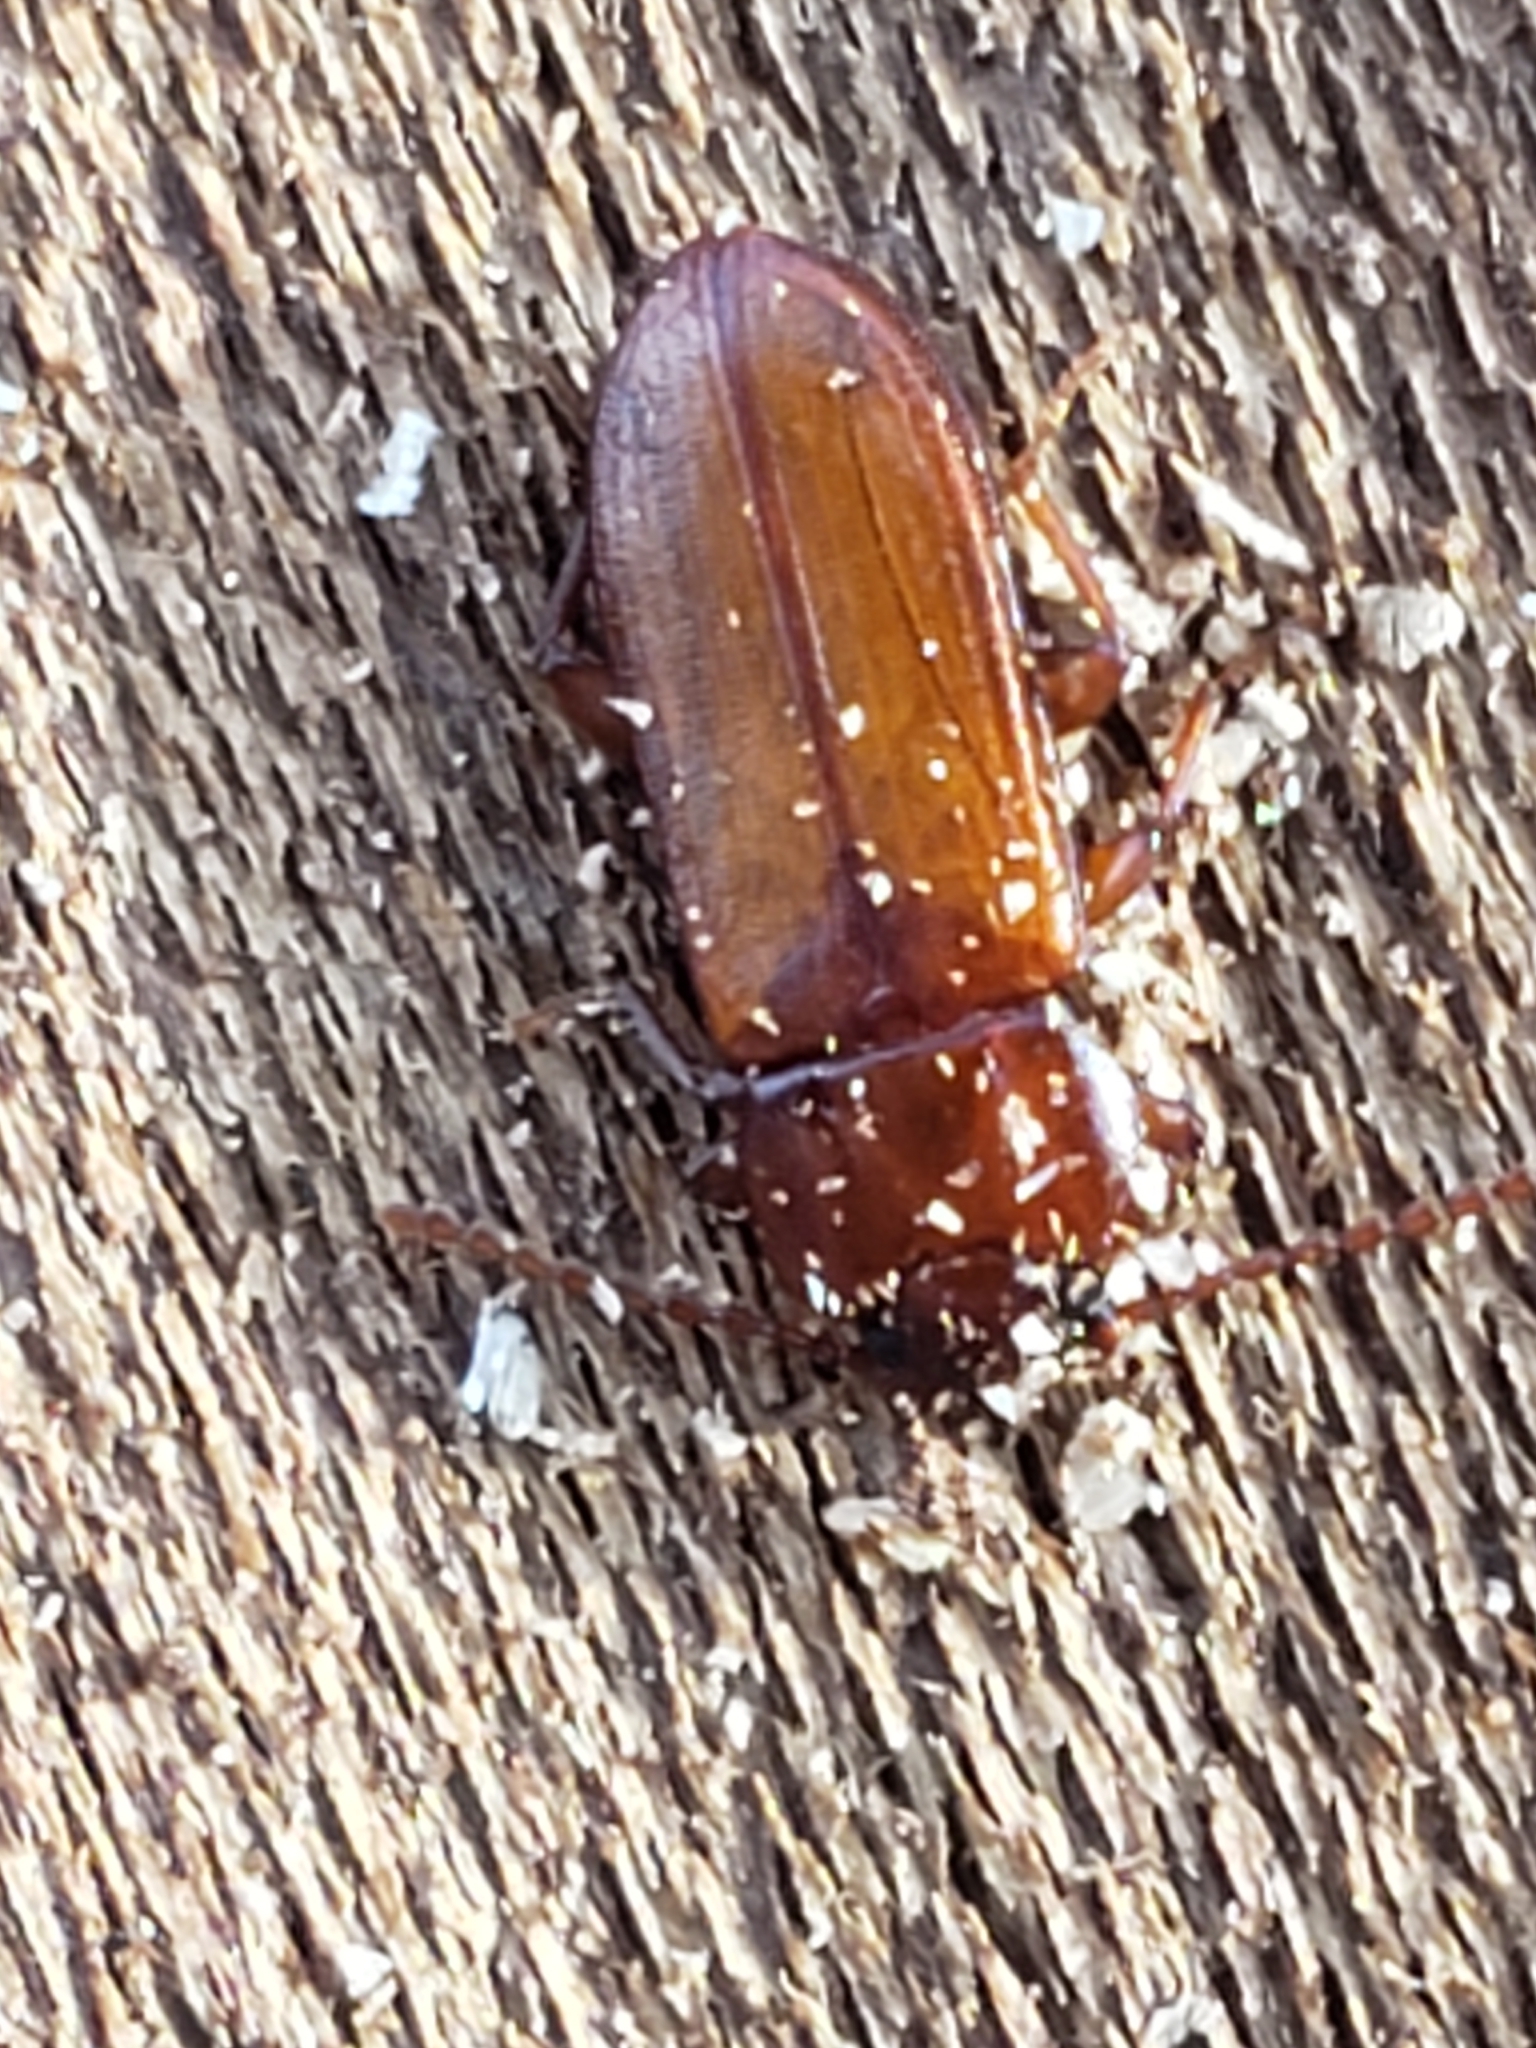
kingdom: Animalia
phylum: Arthropoda
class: Insecta
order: Coleoptera
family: Tenebrionidae
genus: Adelina
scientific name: Adelina pallida
